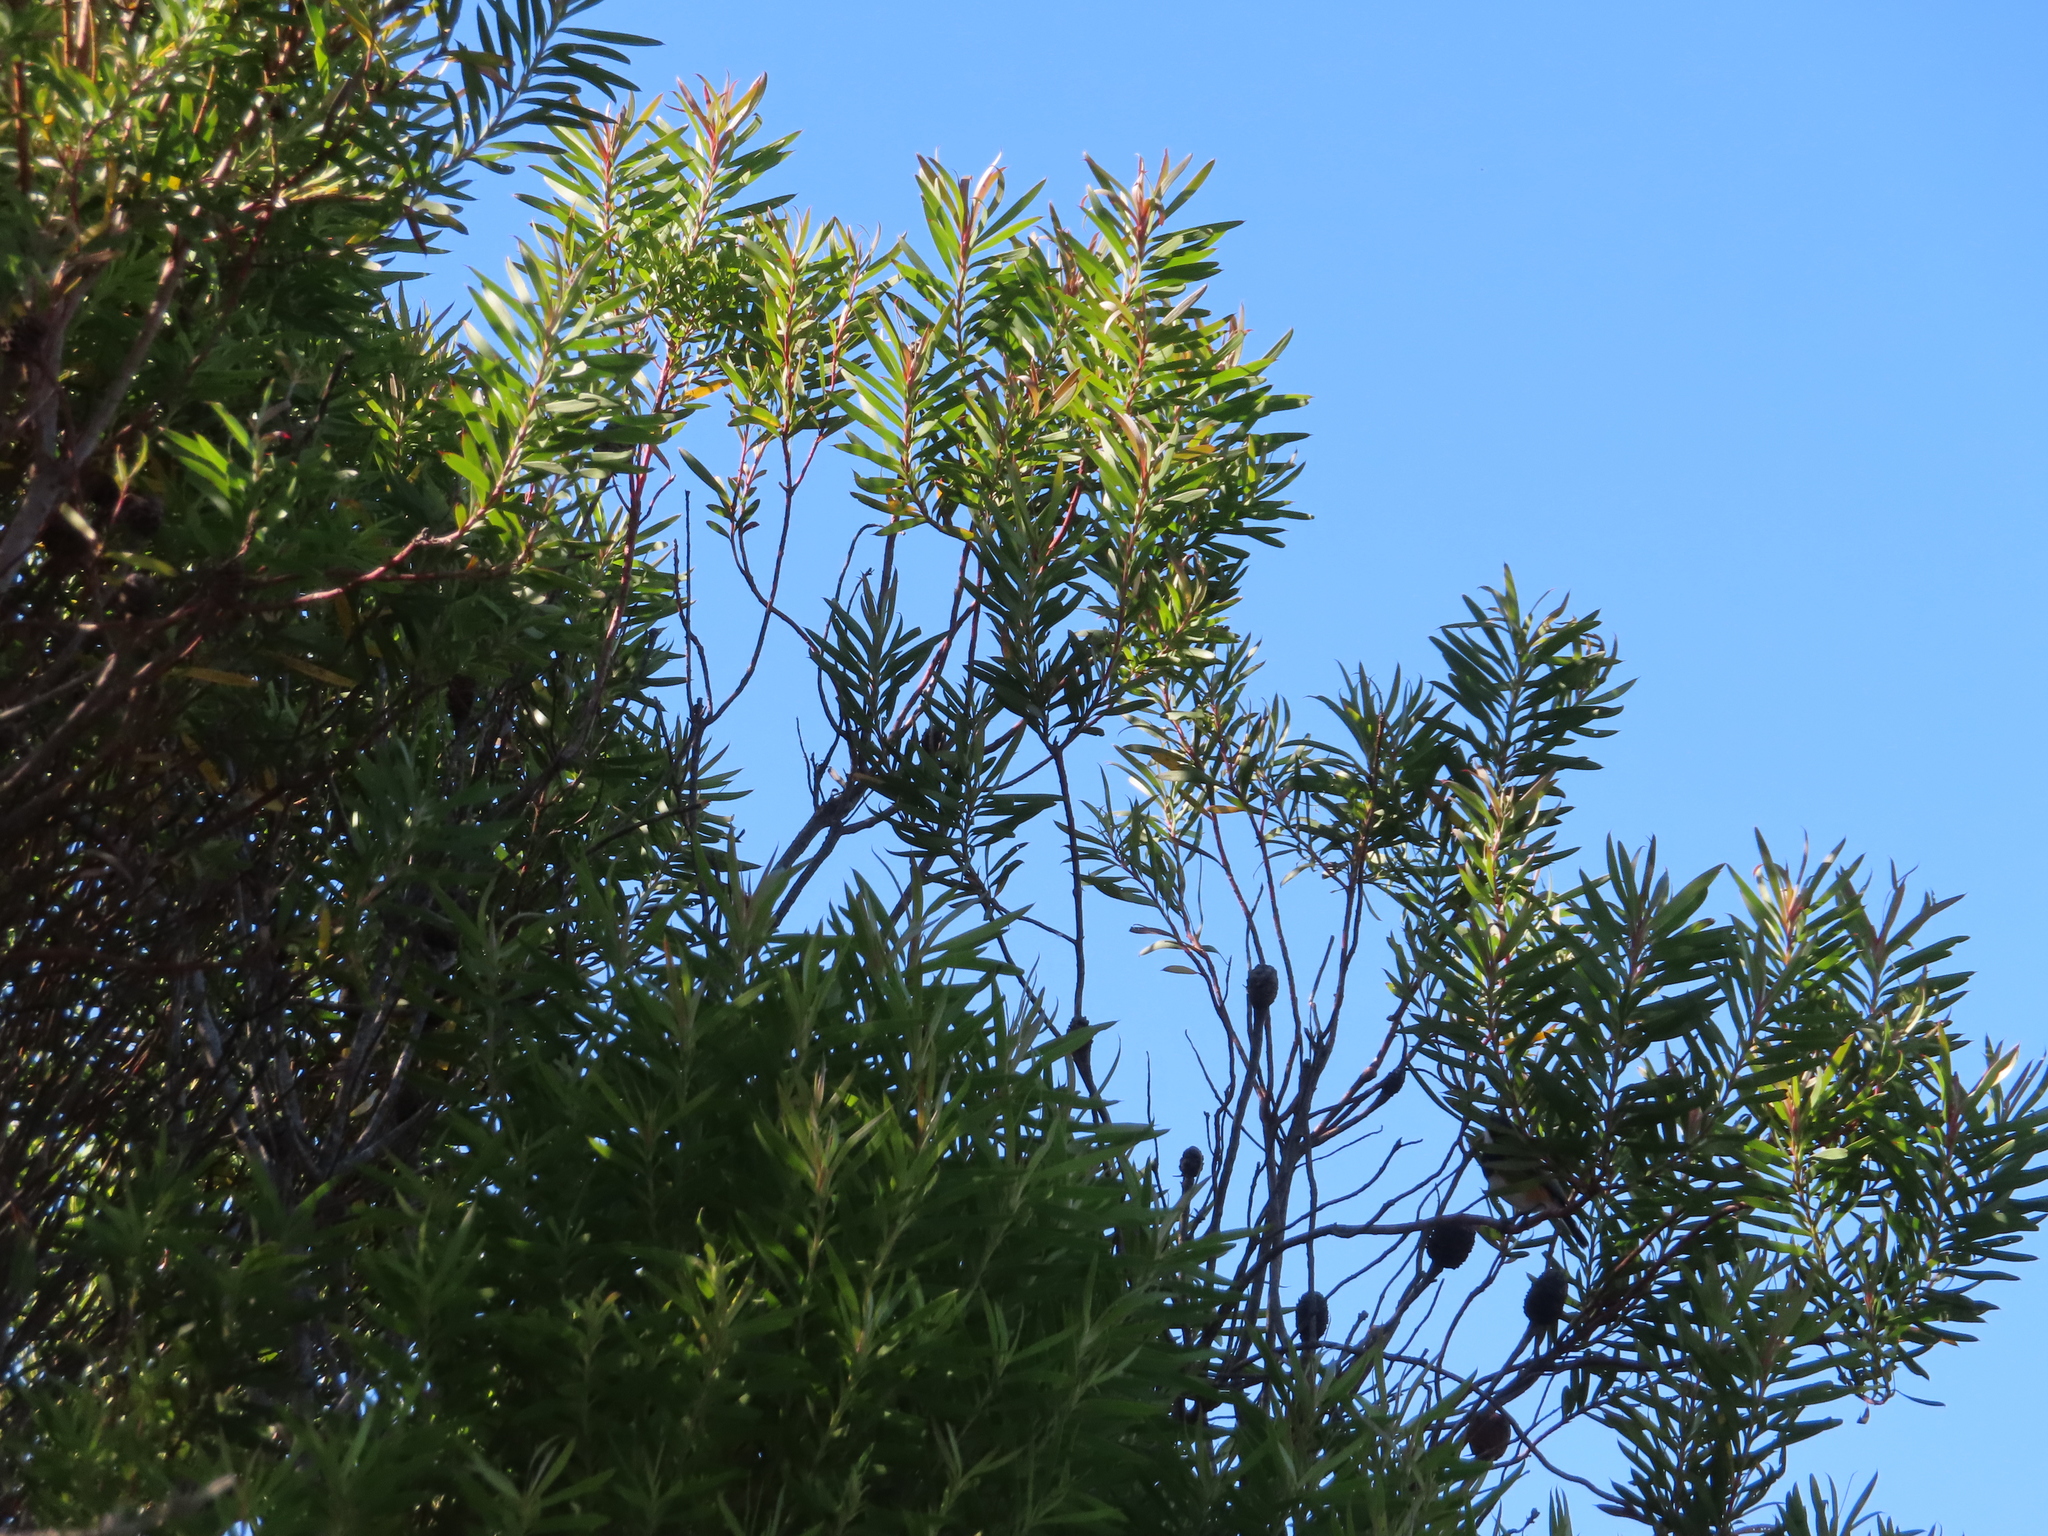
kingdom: Plantae
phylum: Tracheophyta
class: Magnoliopsida
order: Proteales
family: Proteaceae
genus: Leucadendron
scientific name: Leucadendron coniferum
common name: Dune conebush
